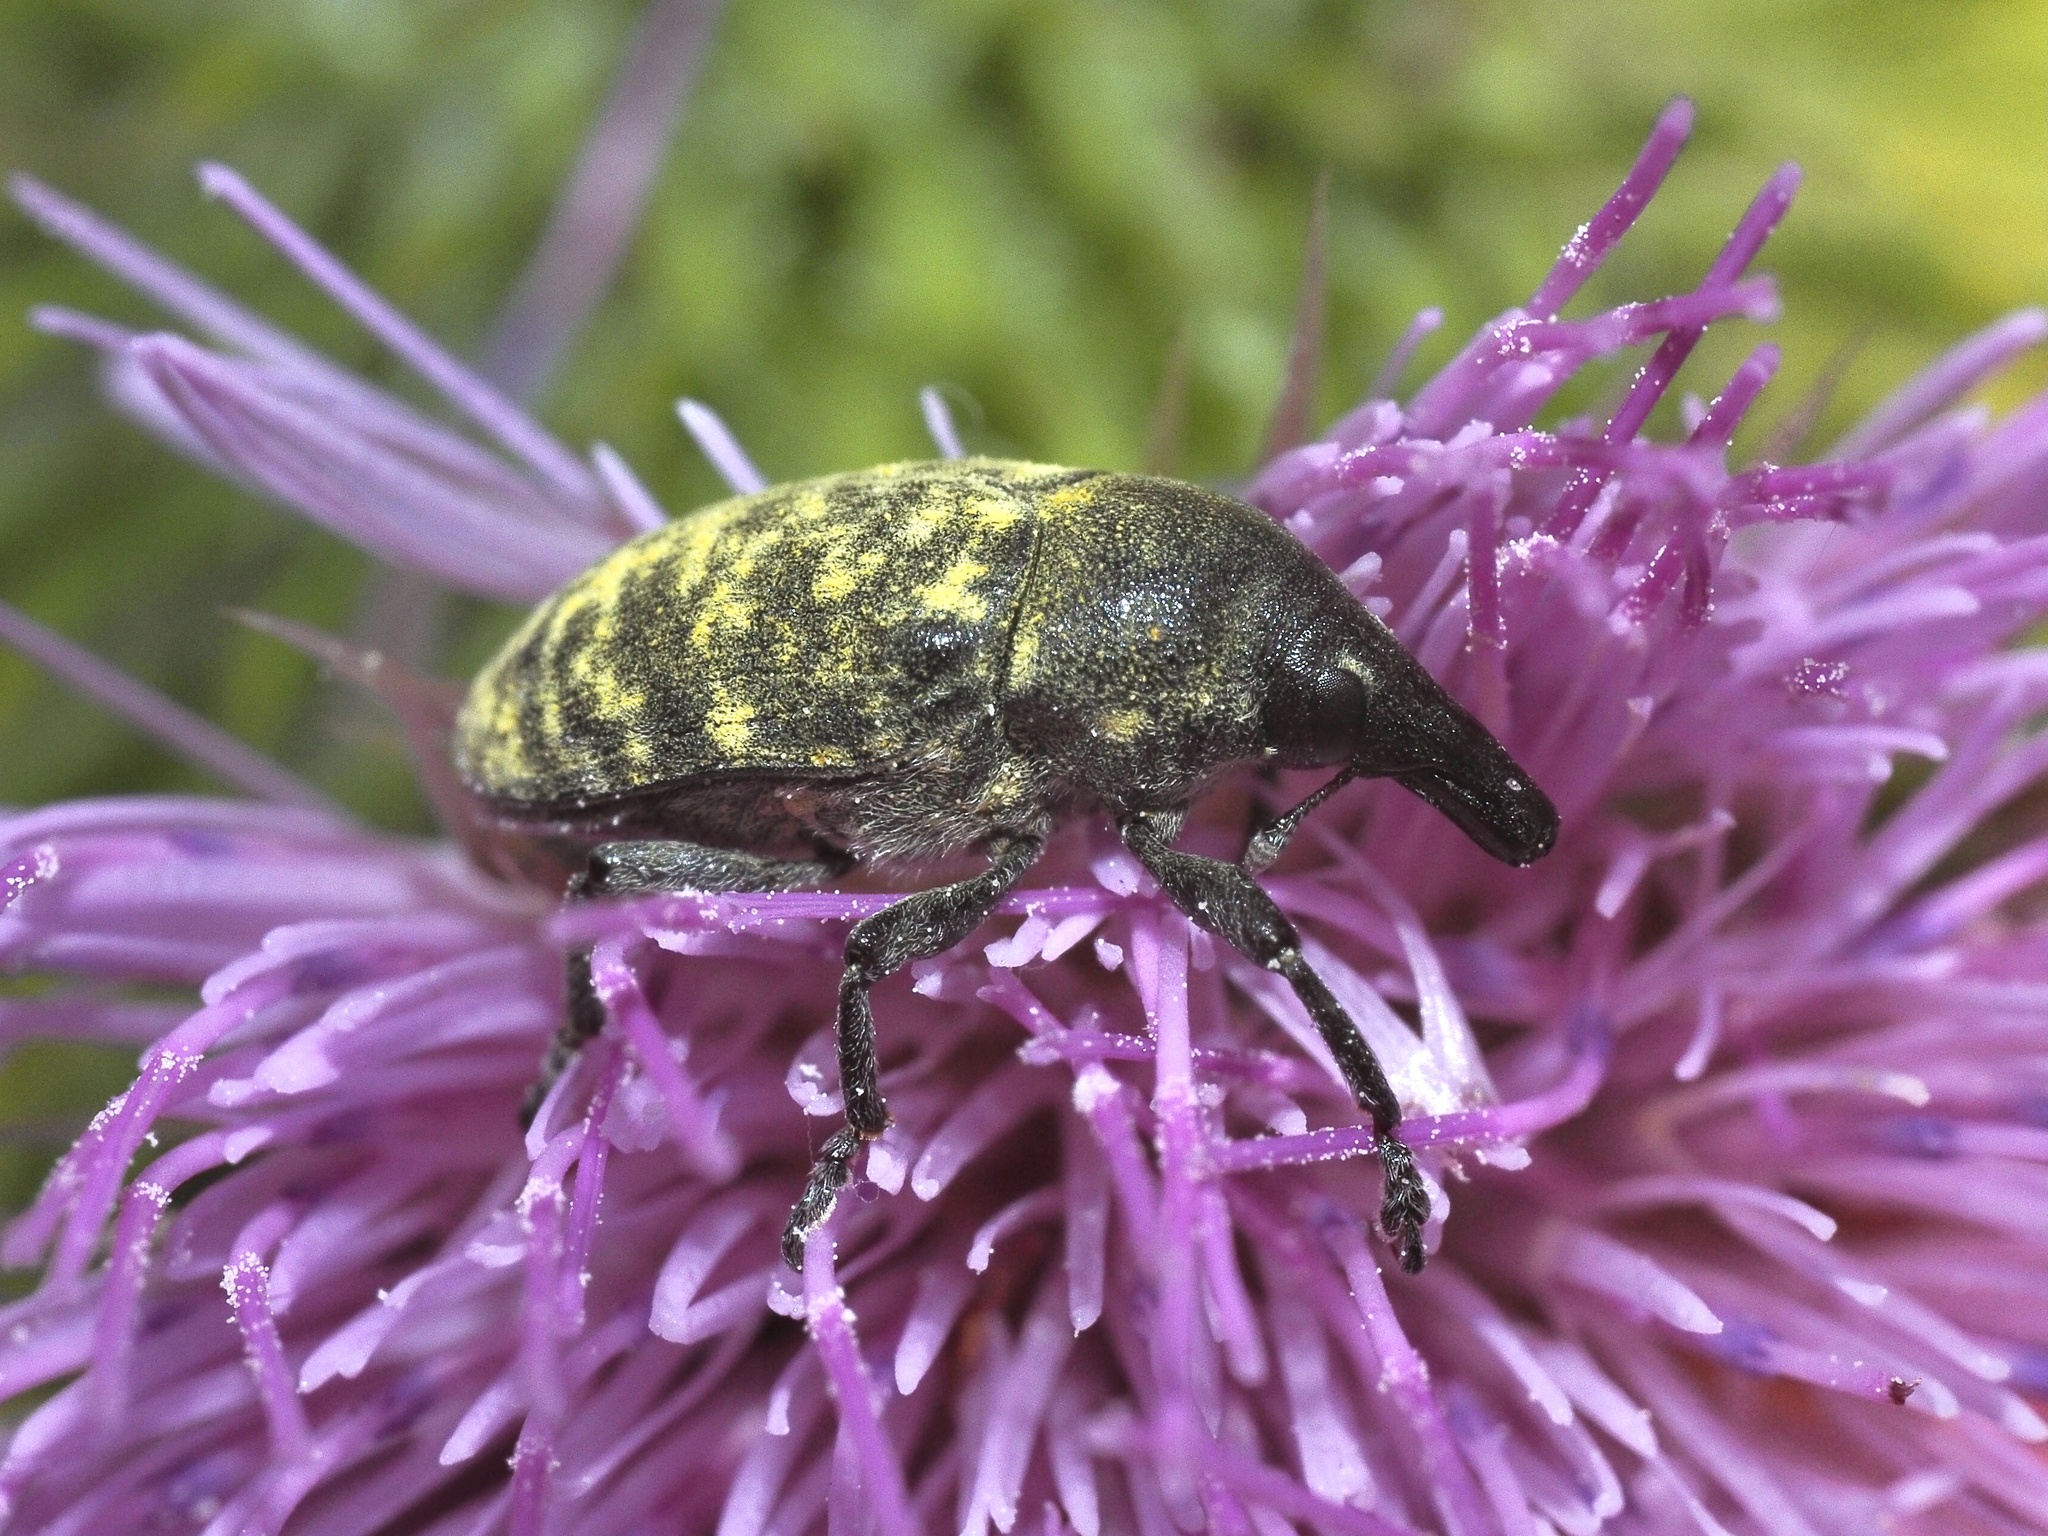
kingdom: Animalia
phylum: Arthropoda
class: Insecta
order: Coleoptera
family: Curculionidae
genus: Larinus
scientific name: Larinus turbinatus
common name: Weevil
